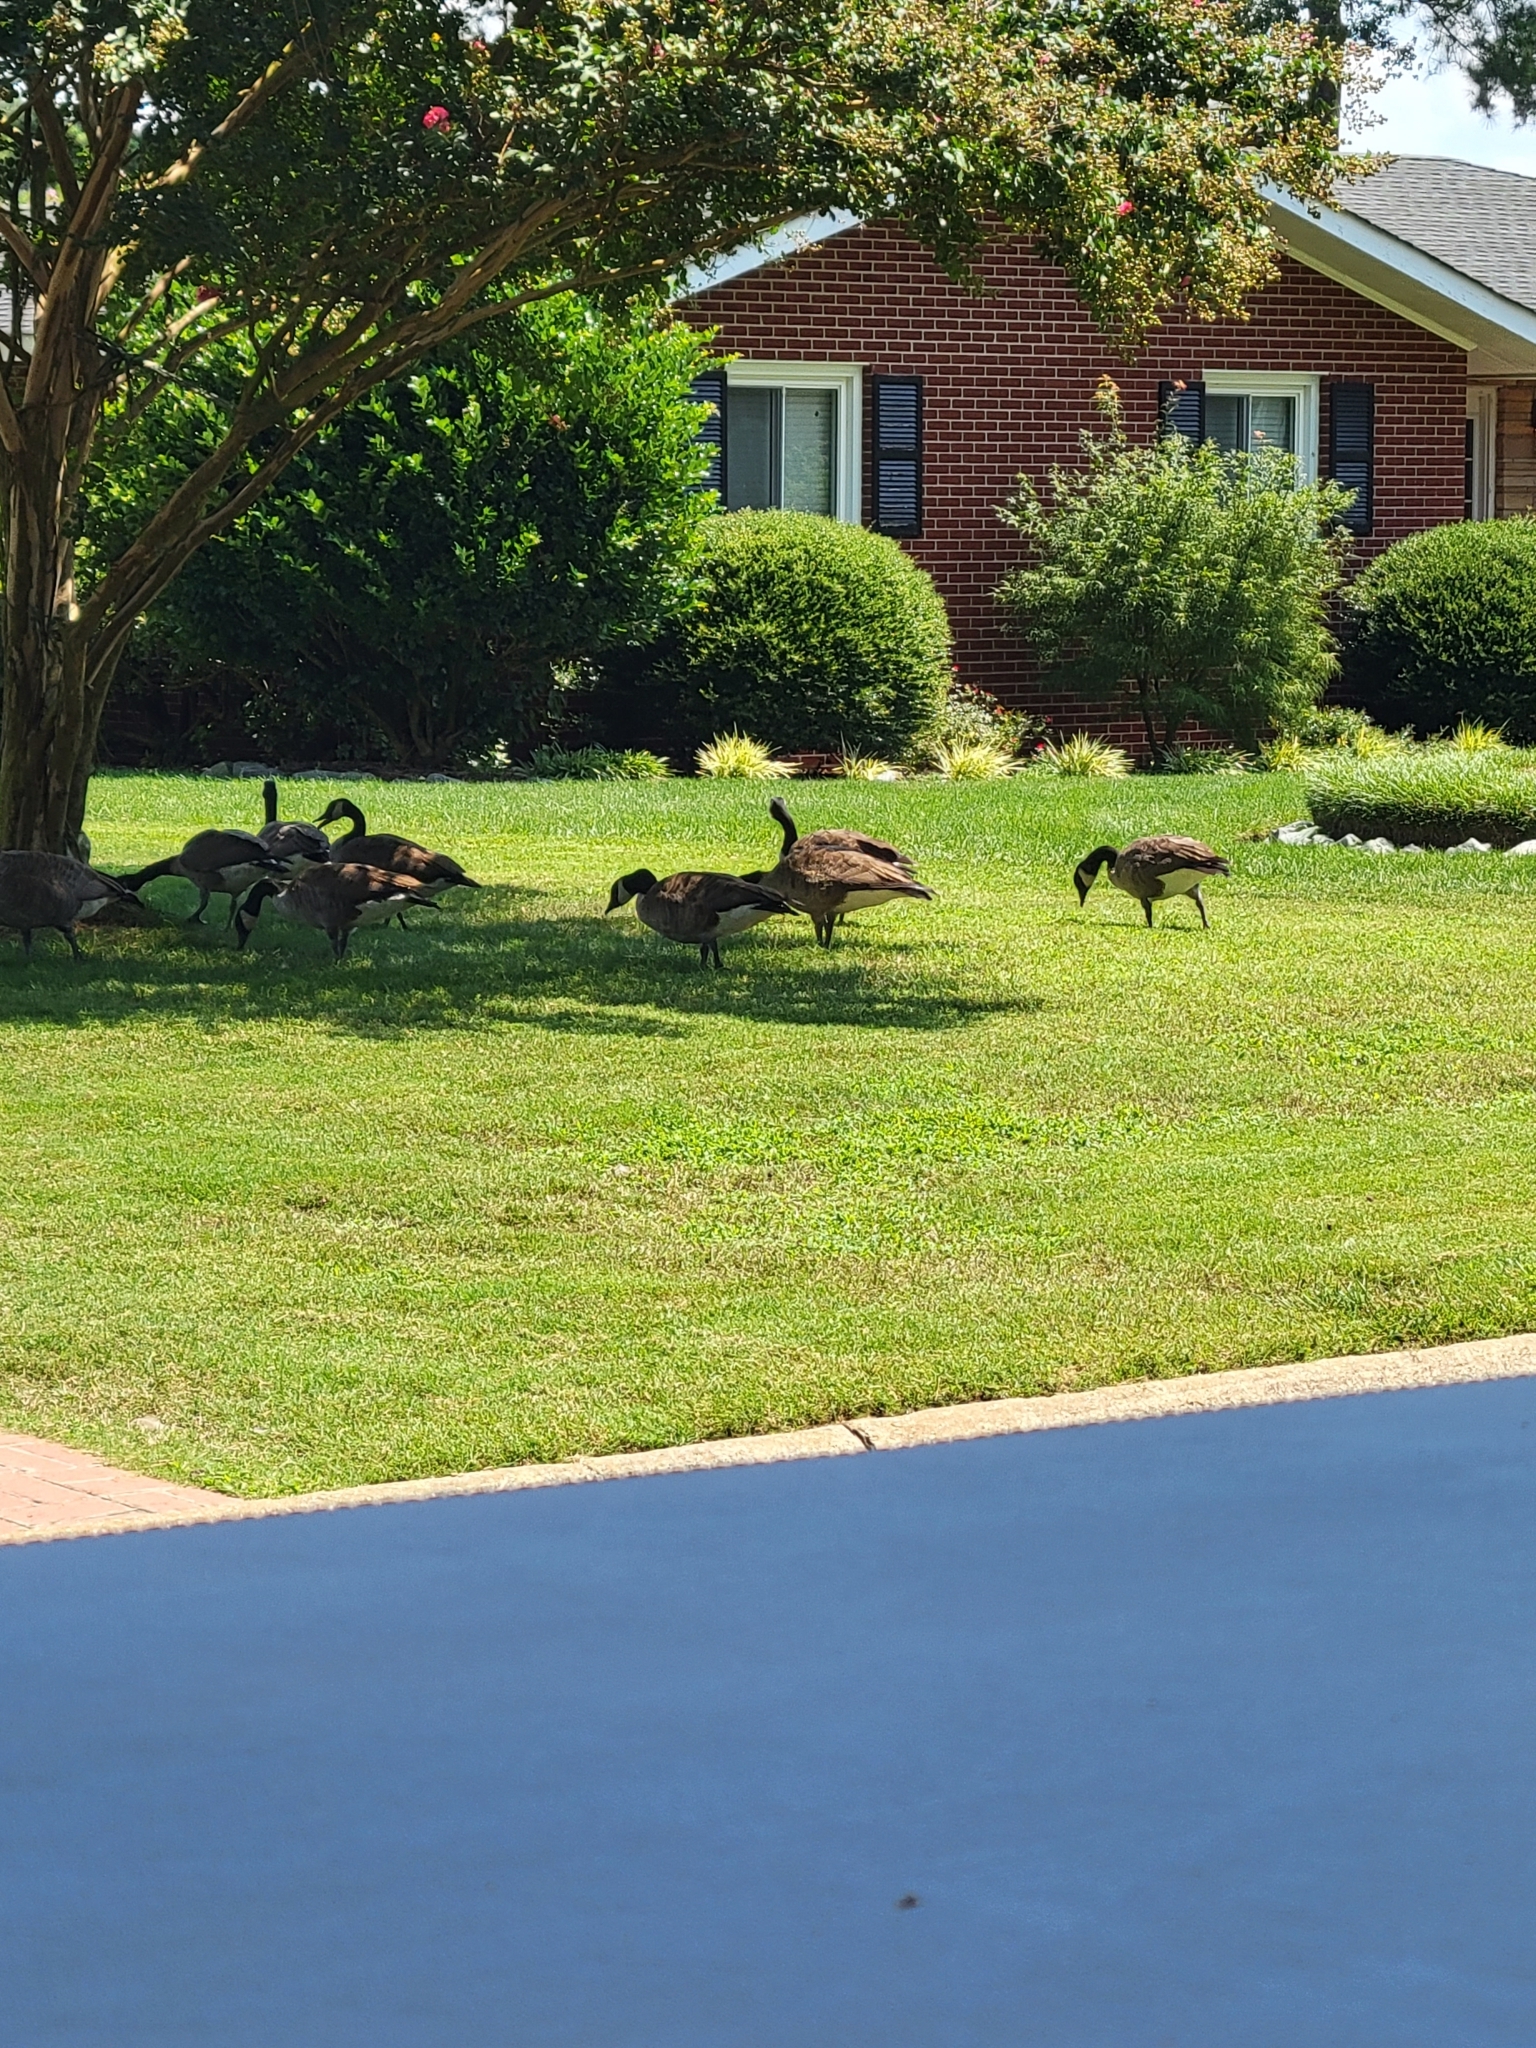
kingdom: Animalia
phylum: Chordata
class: Aves
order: Anseriformes
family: Anatidae
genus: Branta
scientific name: Branta canadensis
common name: Canada goose
